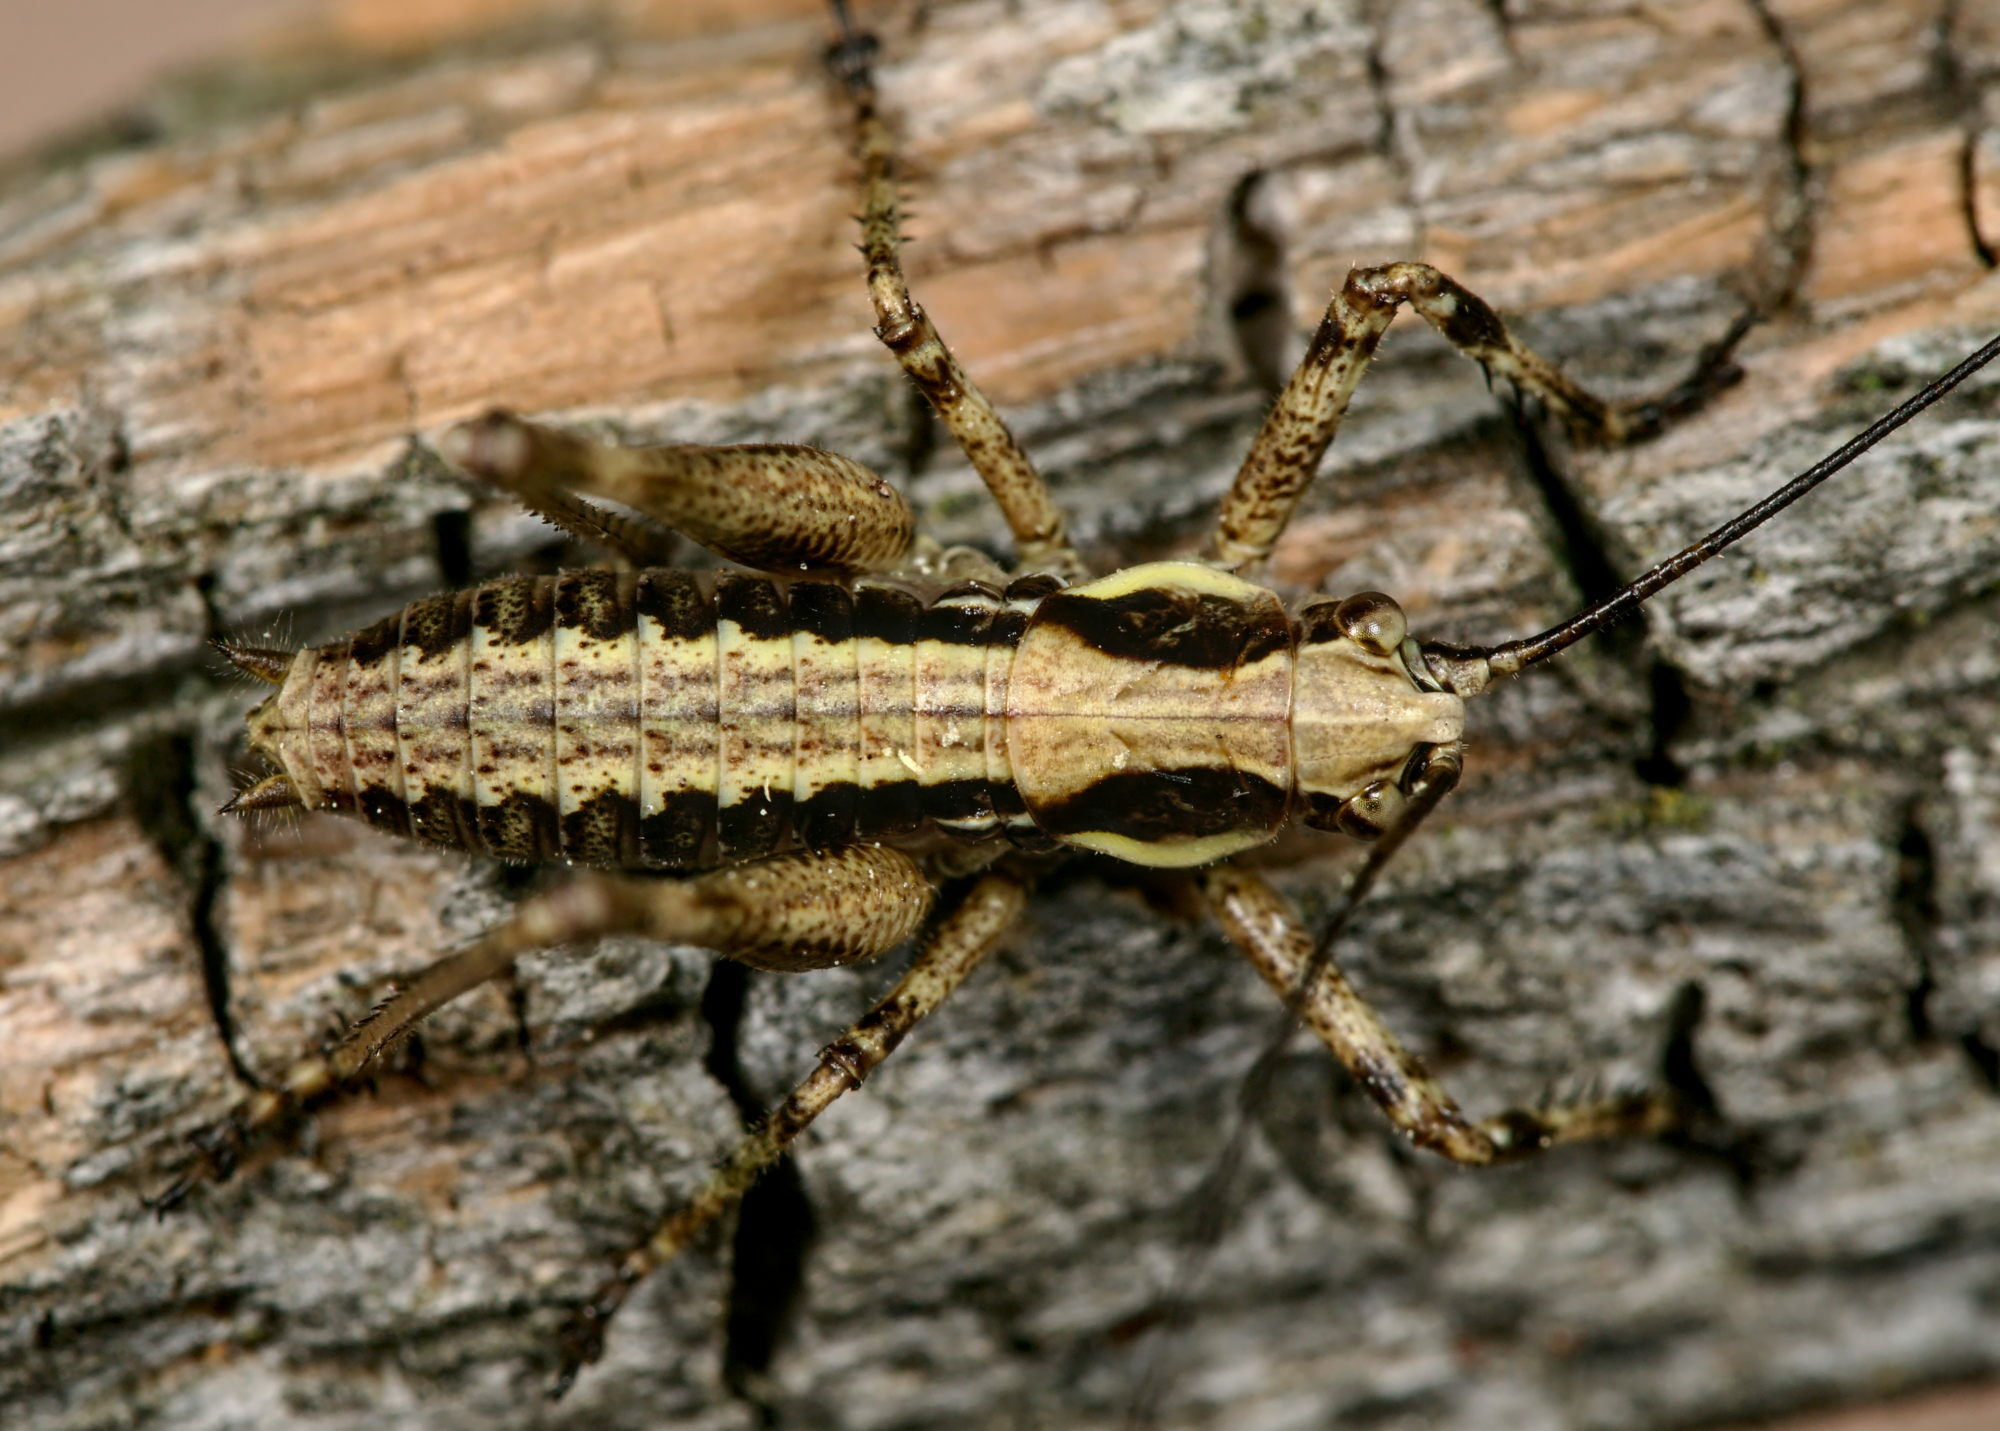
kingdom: Animalia
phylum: Arthropoda
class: Insecta
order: Orthoptera
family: Tettigoniidae
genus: Antaxius
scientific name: Antaxius pedestris
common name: Common mountain bush-cricket
